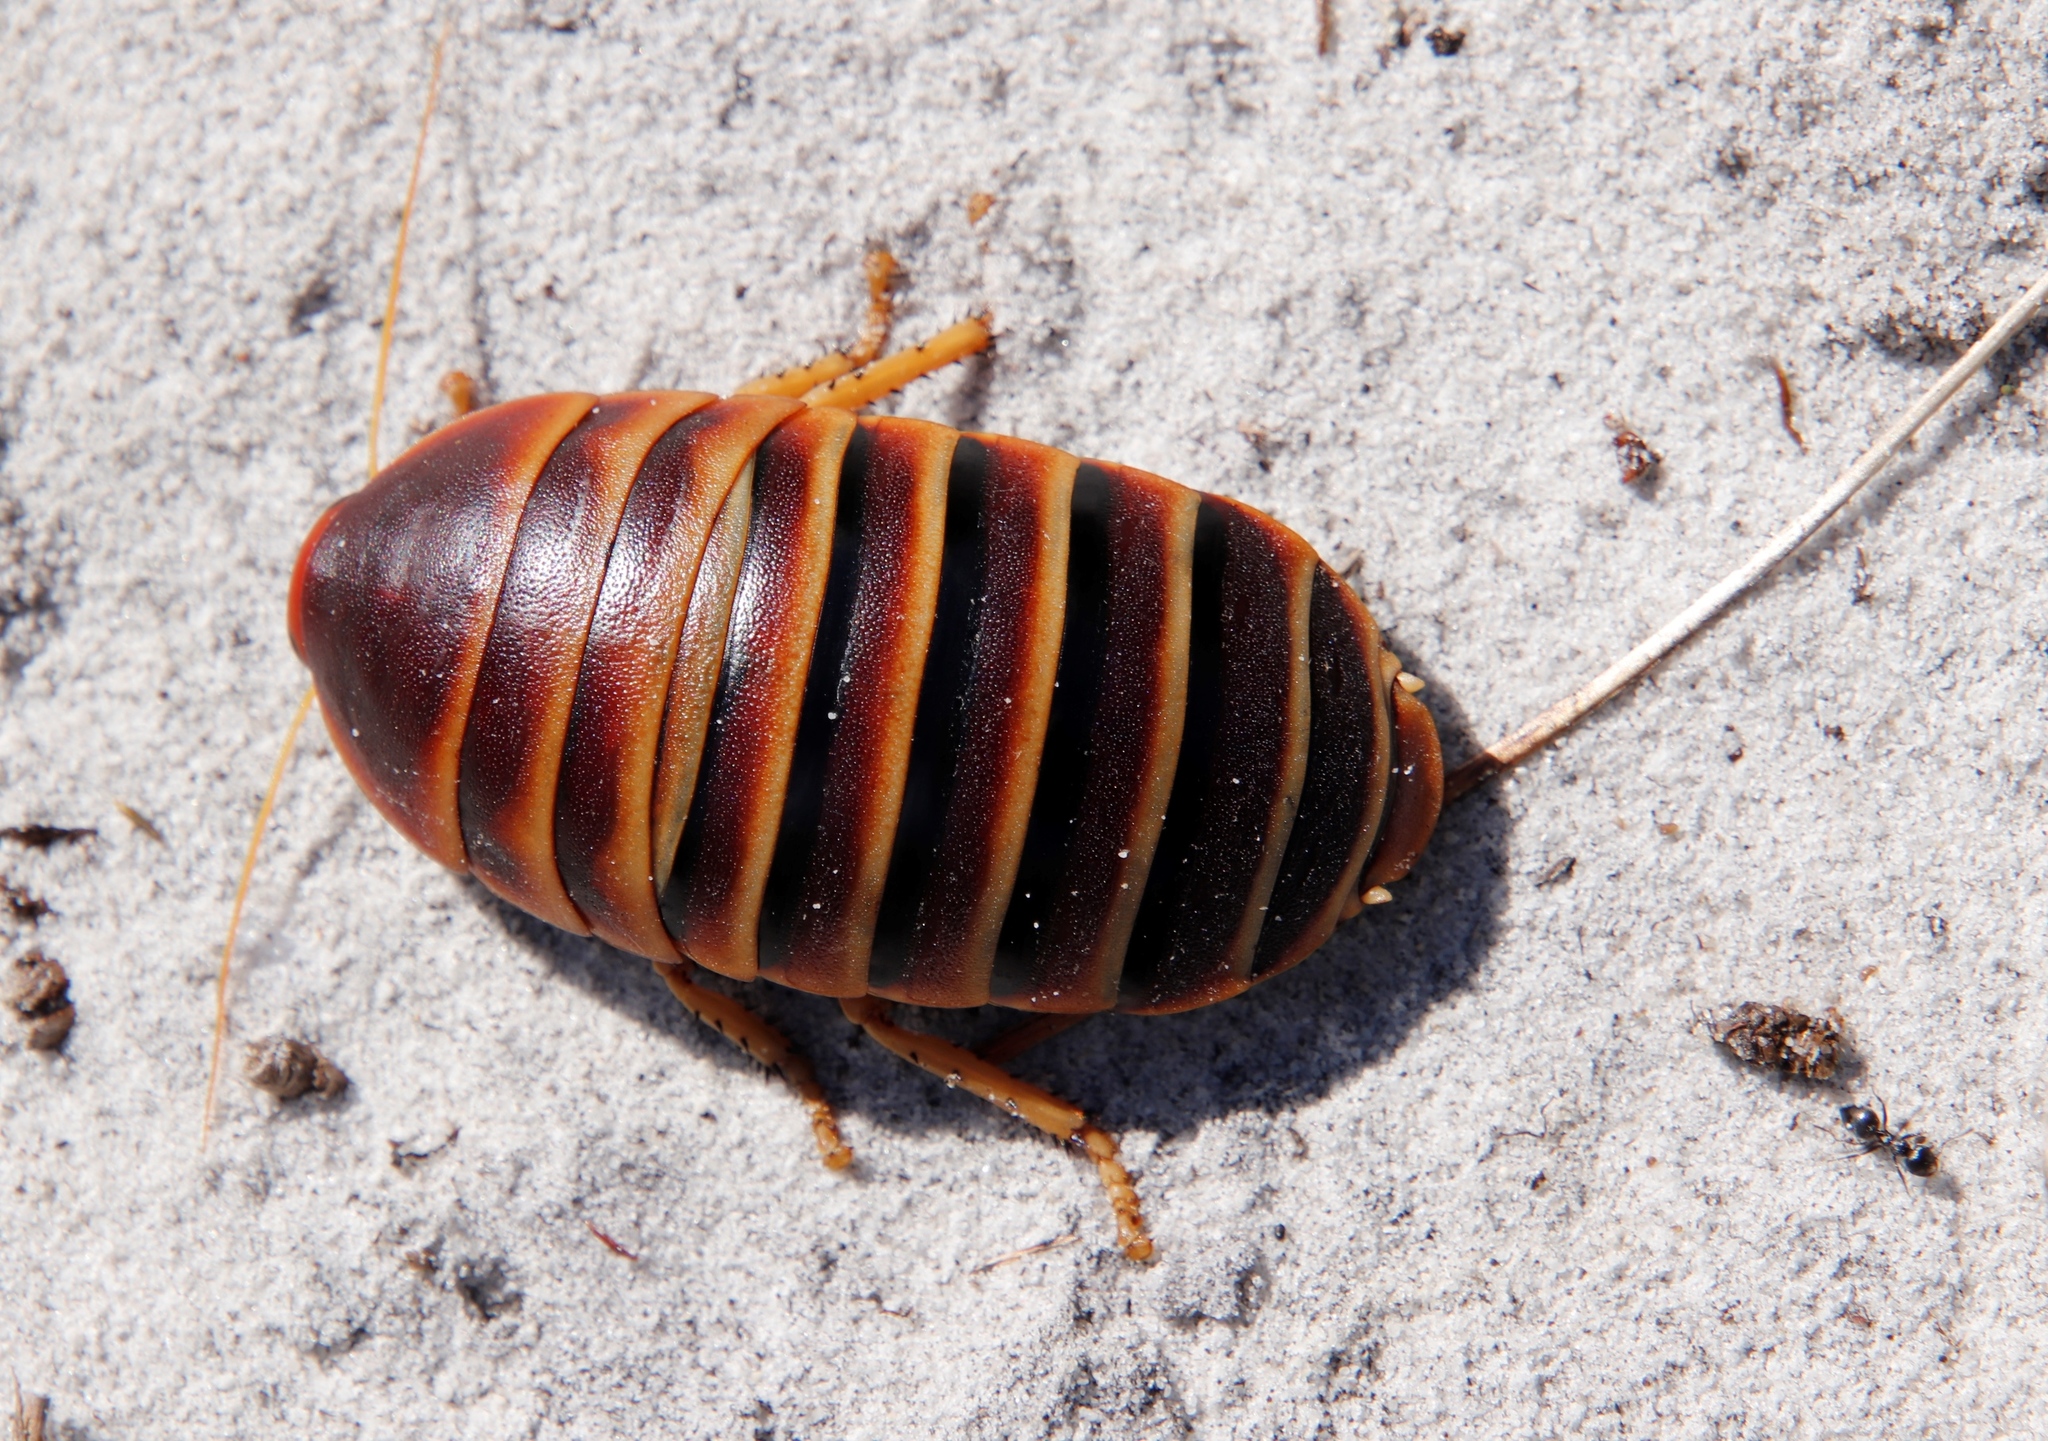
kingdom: Animalia
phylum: Arthropoda
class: Insecta
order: Blattodea
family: Blaberidae
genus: Aptera
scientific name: Aptera fusca
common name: Cape mountain cockroach
